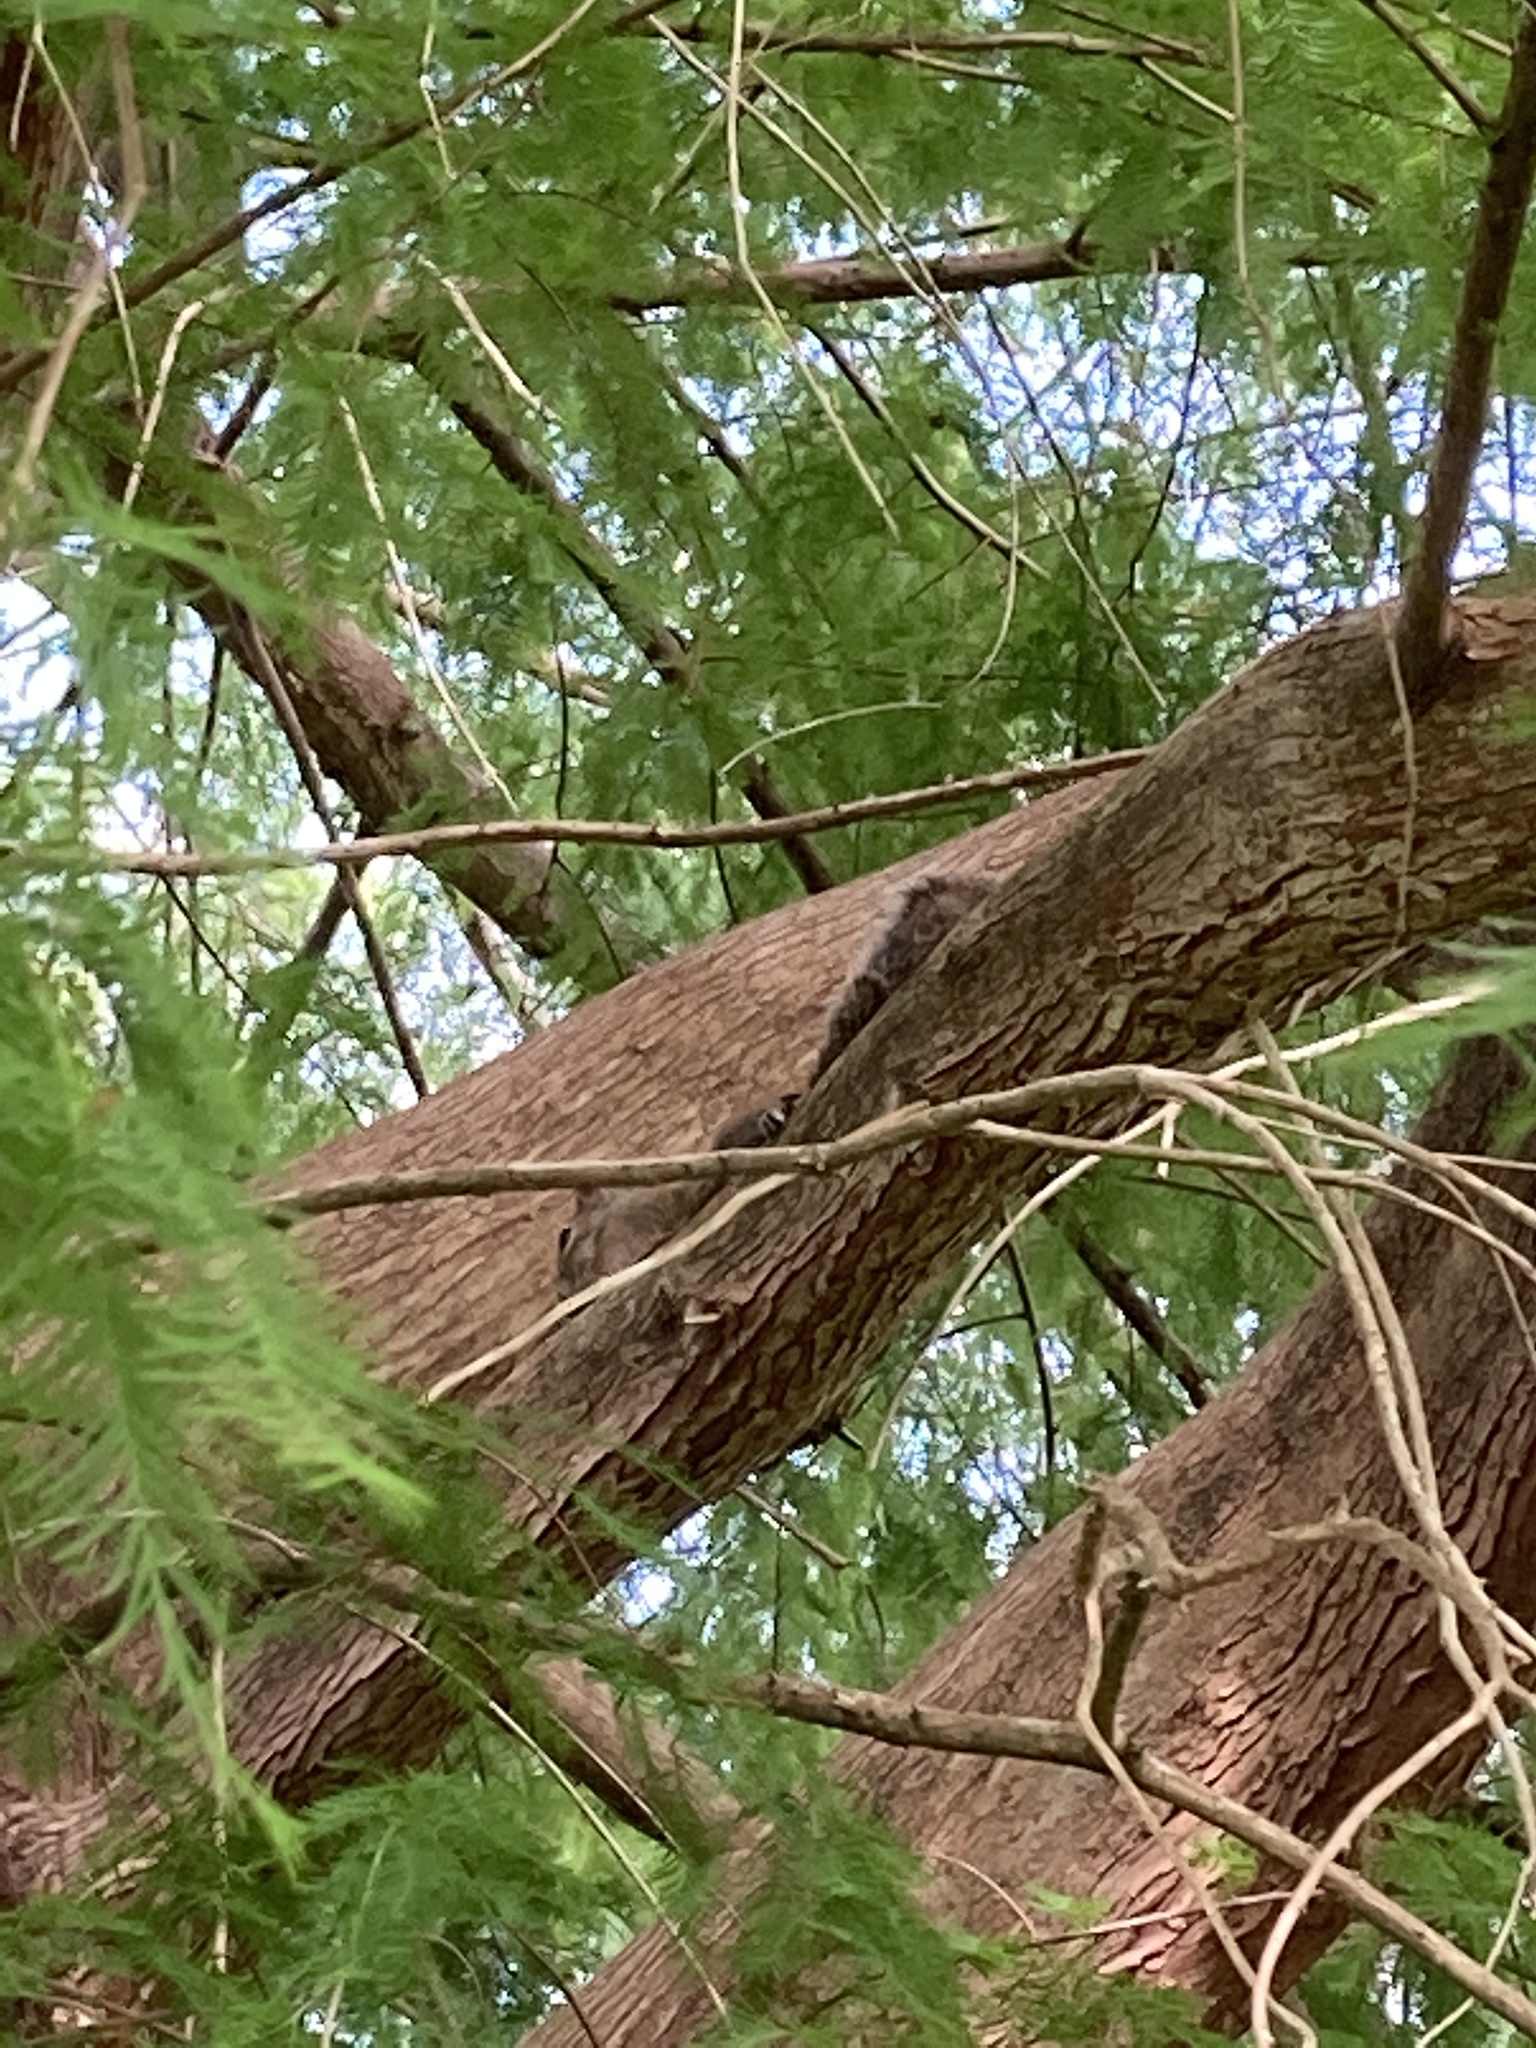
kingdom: Animalia
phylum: Chordata
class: Mammalia
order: Rodentia
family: Sciuridae
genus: Sciurus
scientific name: Sciurus carolinensis
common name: Eastern gray squirrel
